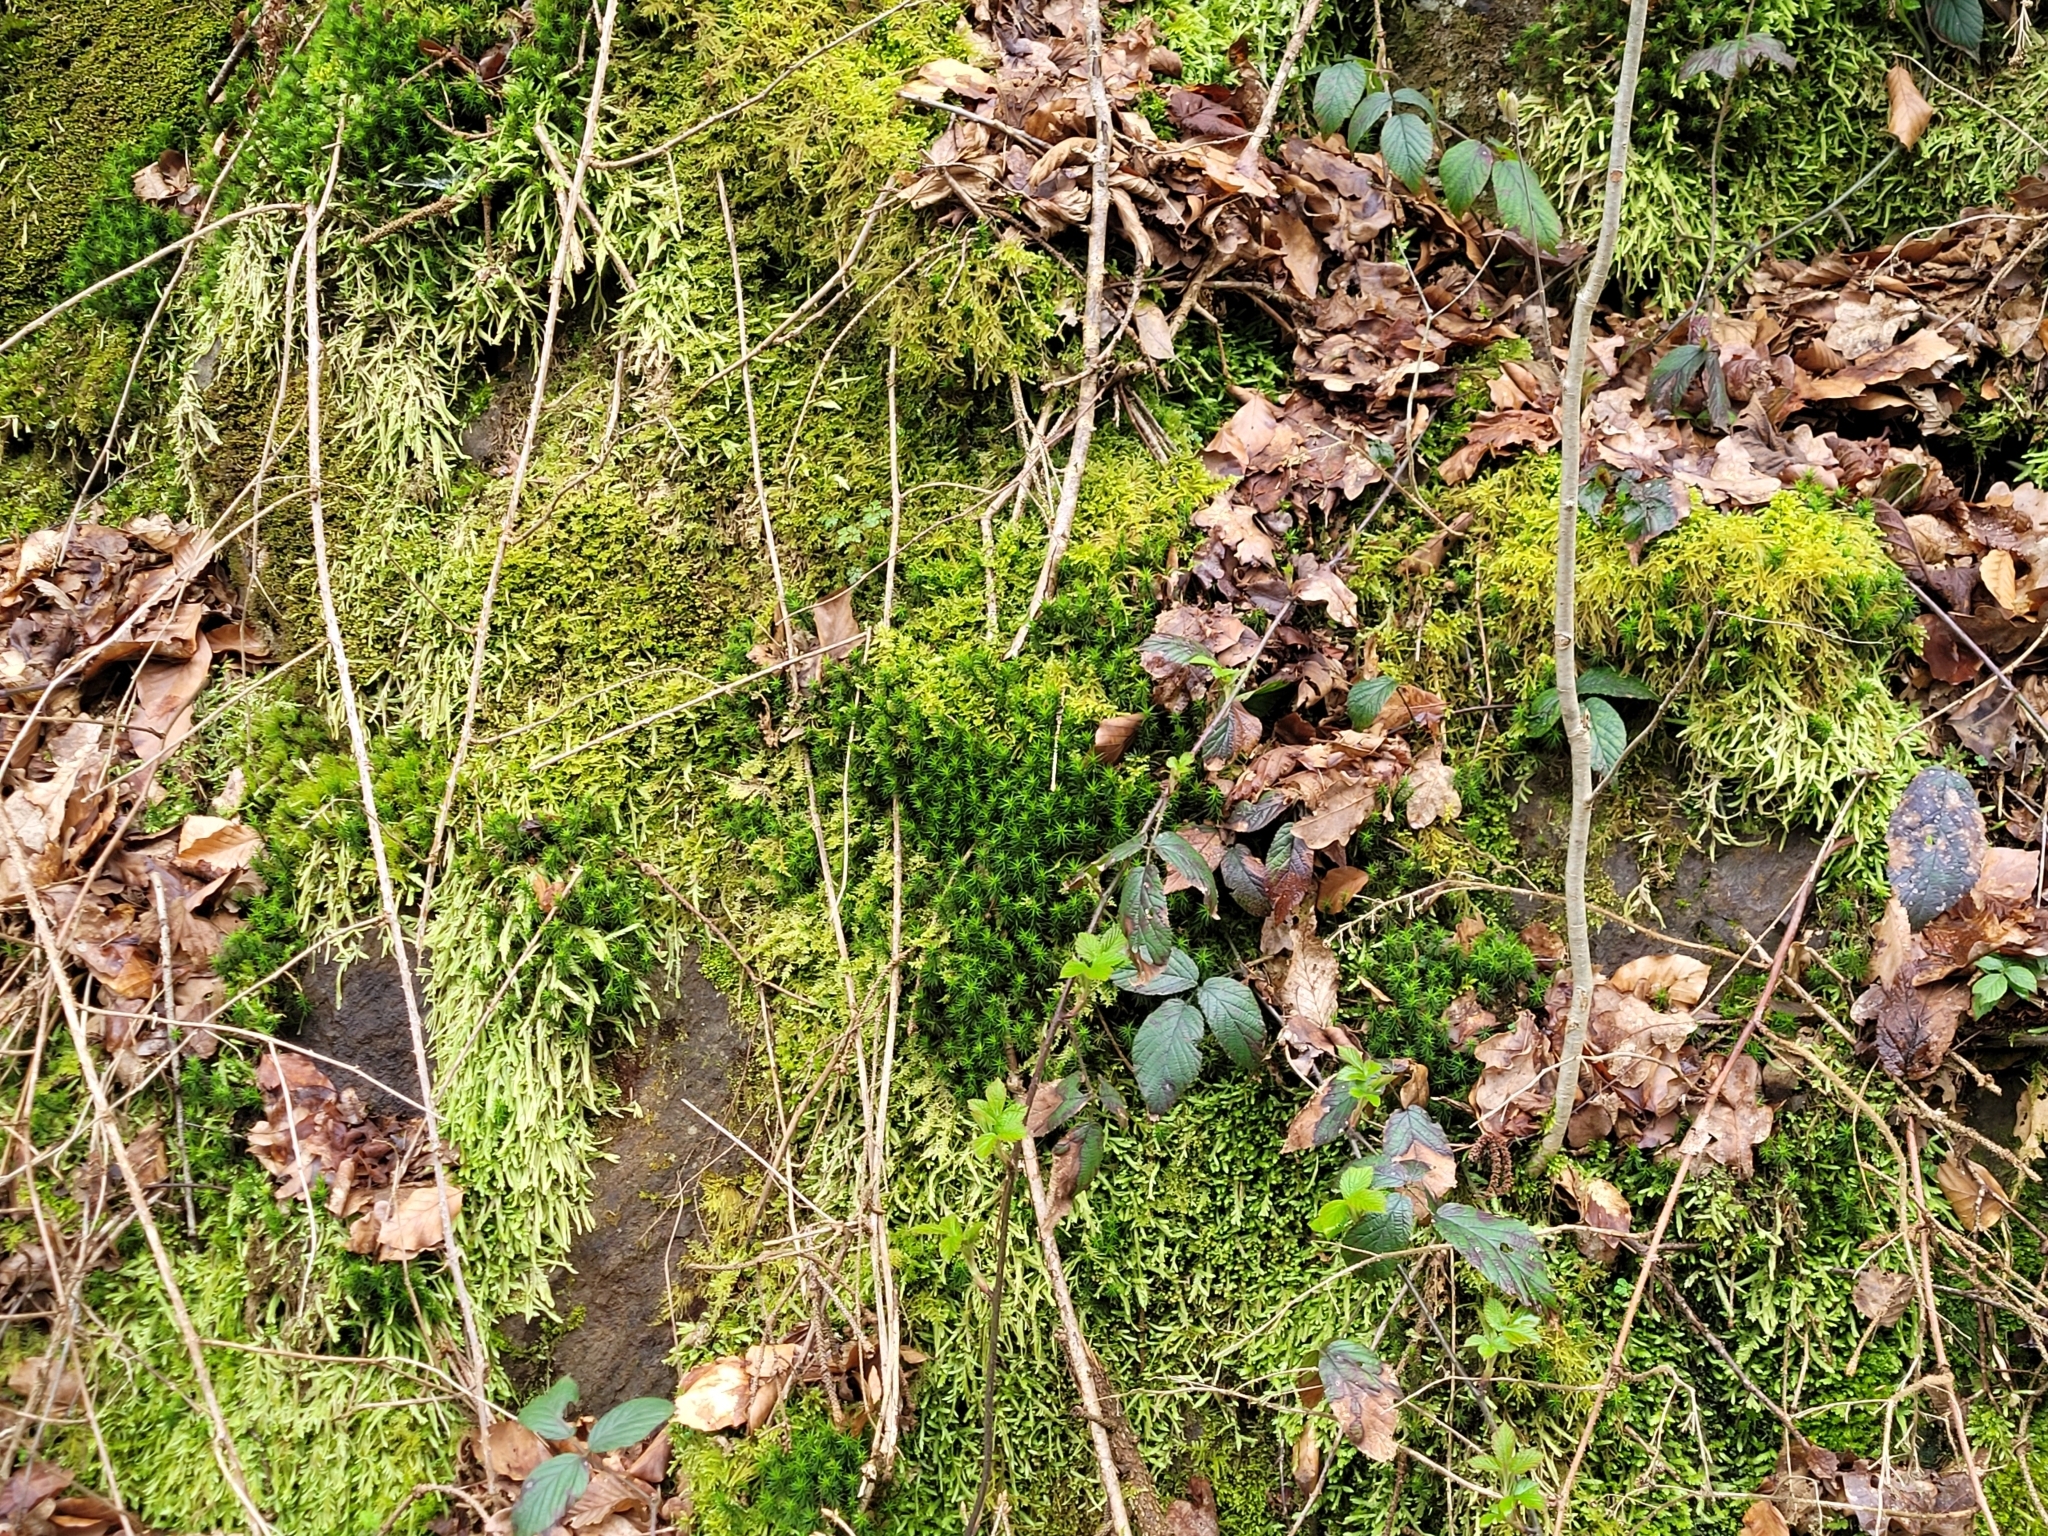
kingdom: Plantae
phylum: Bryophyta
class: Bryopsida
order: Hypnales
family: Plagiotheciaceae
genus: Plagiothecium
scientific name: Plagiothecium undulatum
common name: Waved silk-moss
